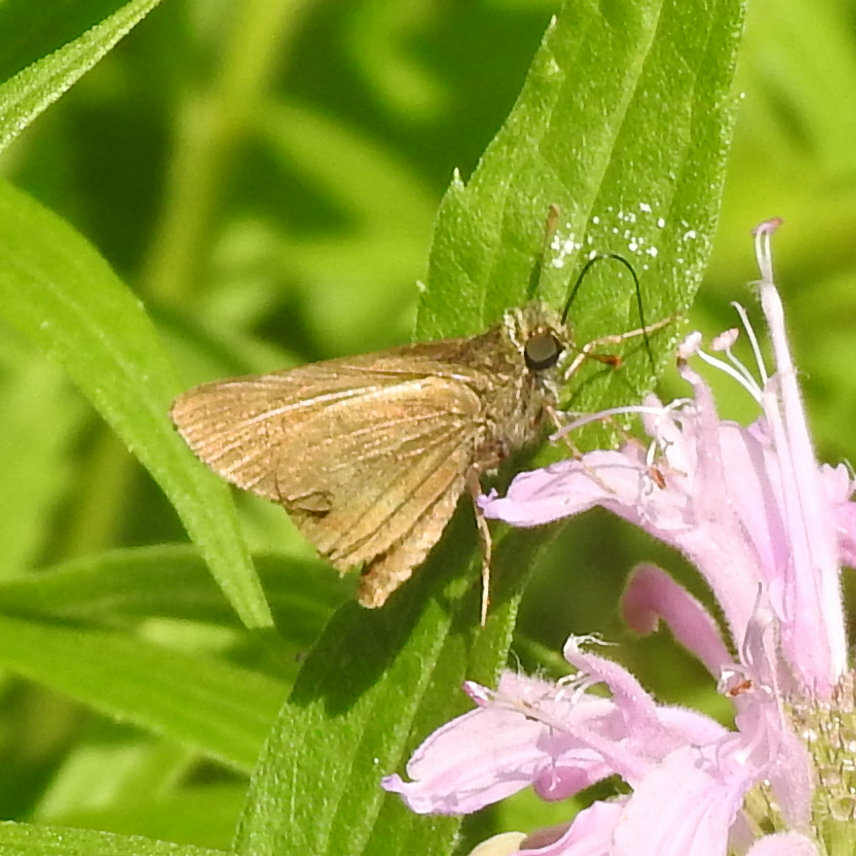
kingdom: Animalia
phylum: Arthropoda
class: Insecta
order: Lepidoptera
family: Hesperiidae
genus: Euphyes
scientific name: Euphyes vestris
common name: Dun skipper
